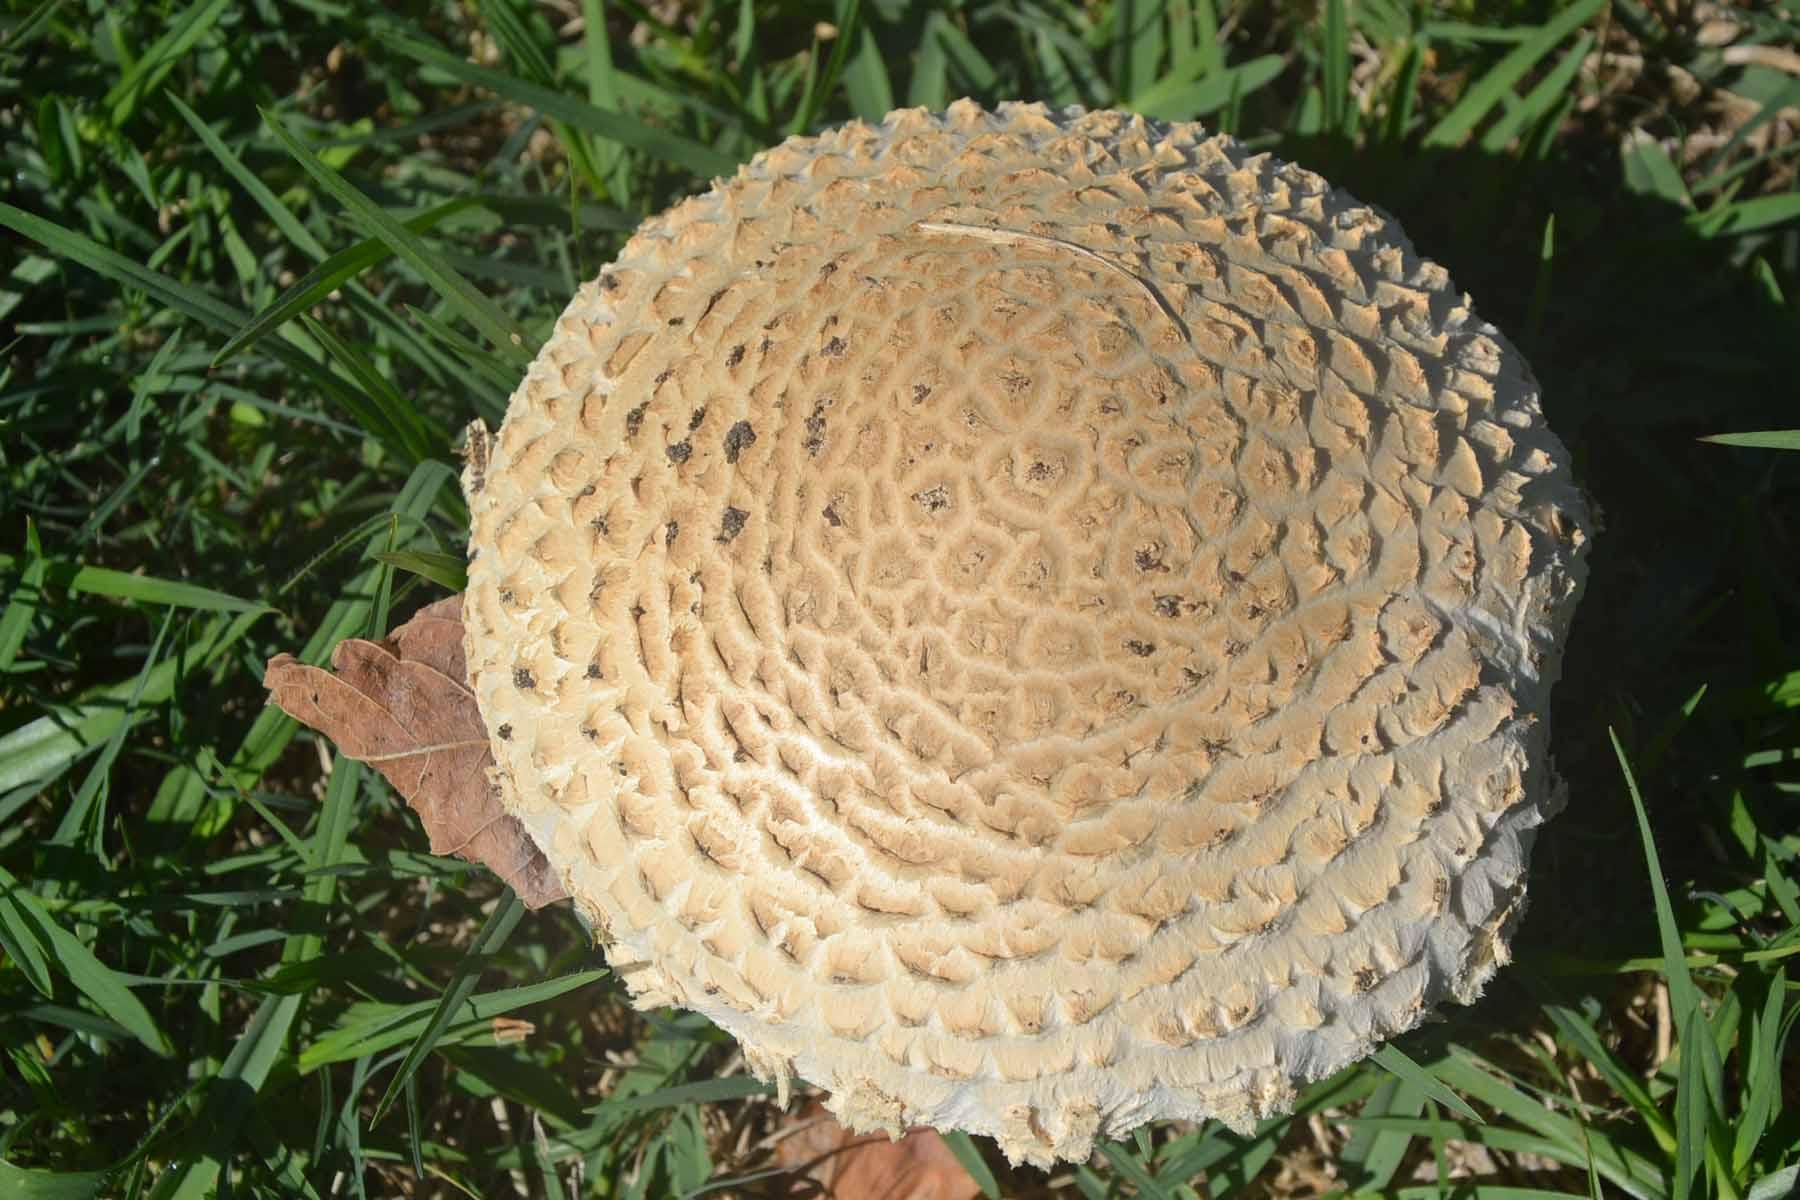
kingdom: Fungi
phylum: Basidiomycota
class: Agaricomycetes
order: Agaricales
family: Amanitaceae
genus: Amanita
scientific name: Amanita foetidissima
